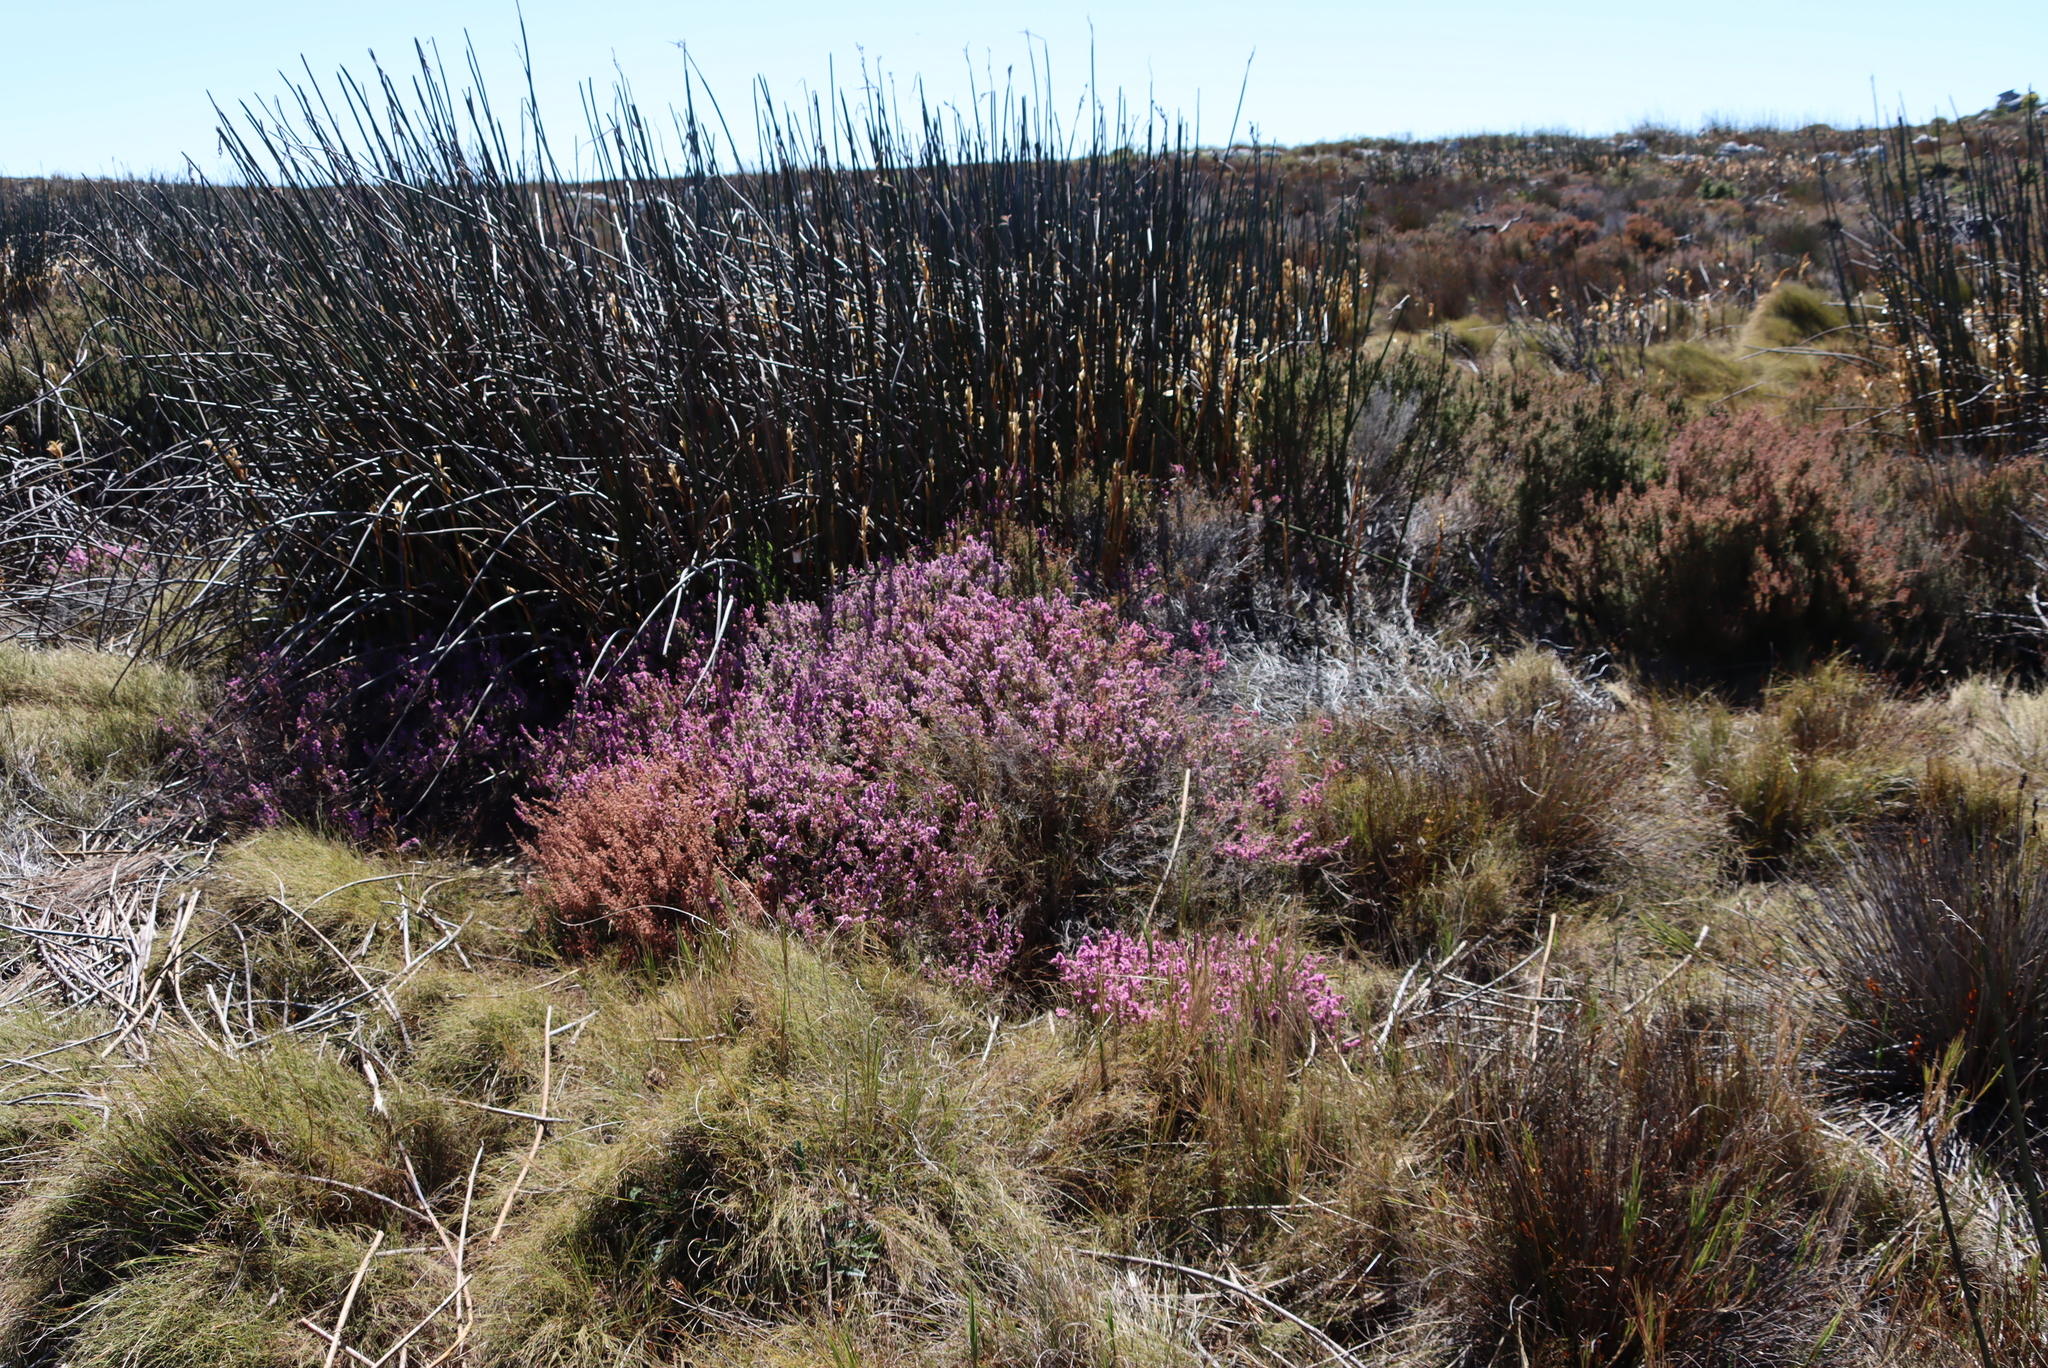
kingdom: Plantae
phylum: Tracheophyta
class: Magnoliopsida
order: Ericales
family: Ericaceae
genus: Erica
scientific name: Erica mollis
